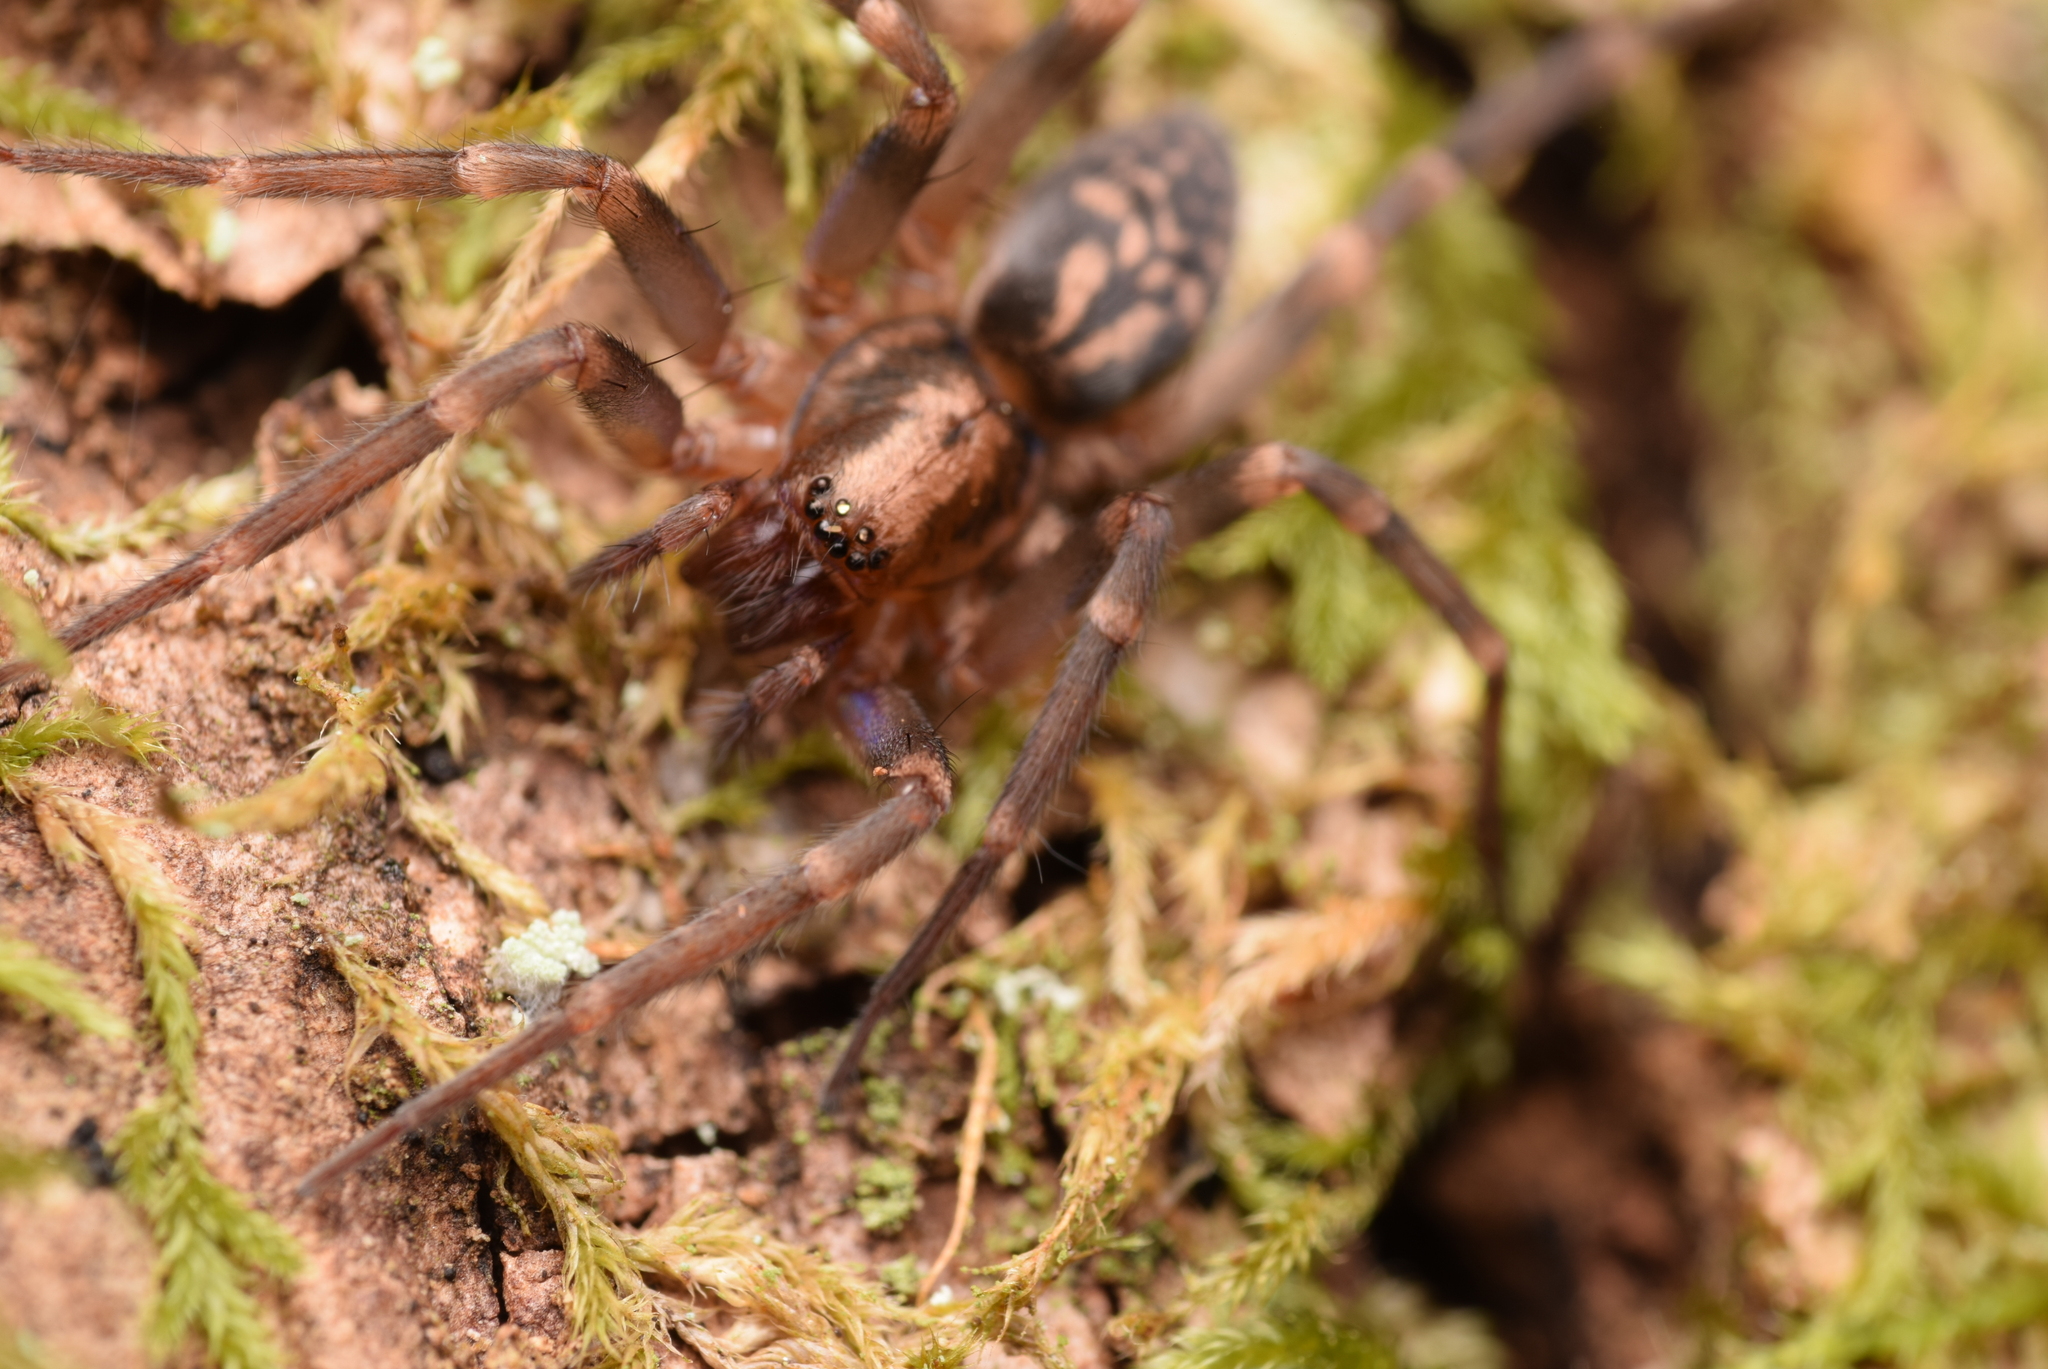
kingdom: Animalia
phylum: Arthropoda
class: Arachnida
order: Araneae
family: Liocranidae
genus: Liocranum
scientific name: Liocranum rupicola
